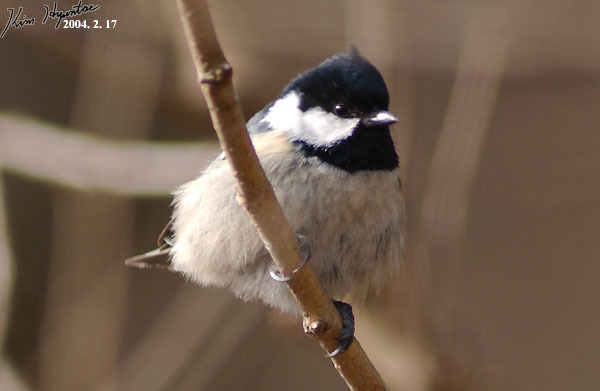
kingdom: Animalia
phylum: Chordata
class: Aves
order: Passeriformes
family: Paridae
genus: Periparus
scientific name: Periparus ater
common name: Coal tit
